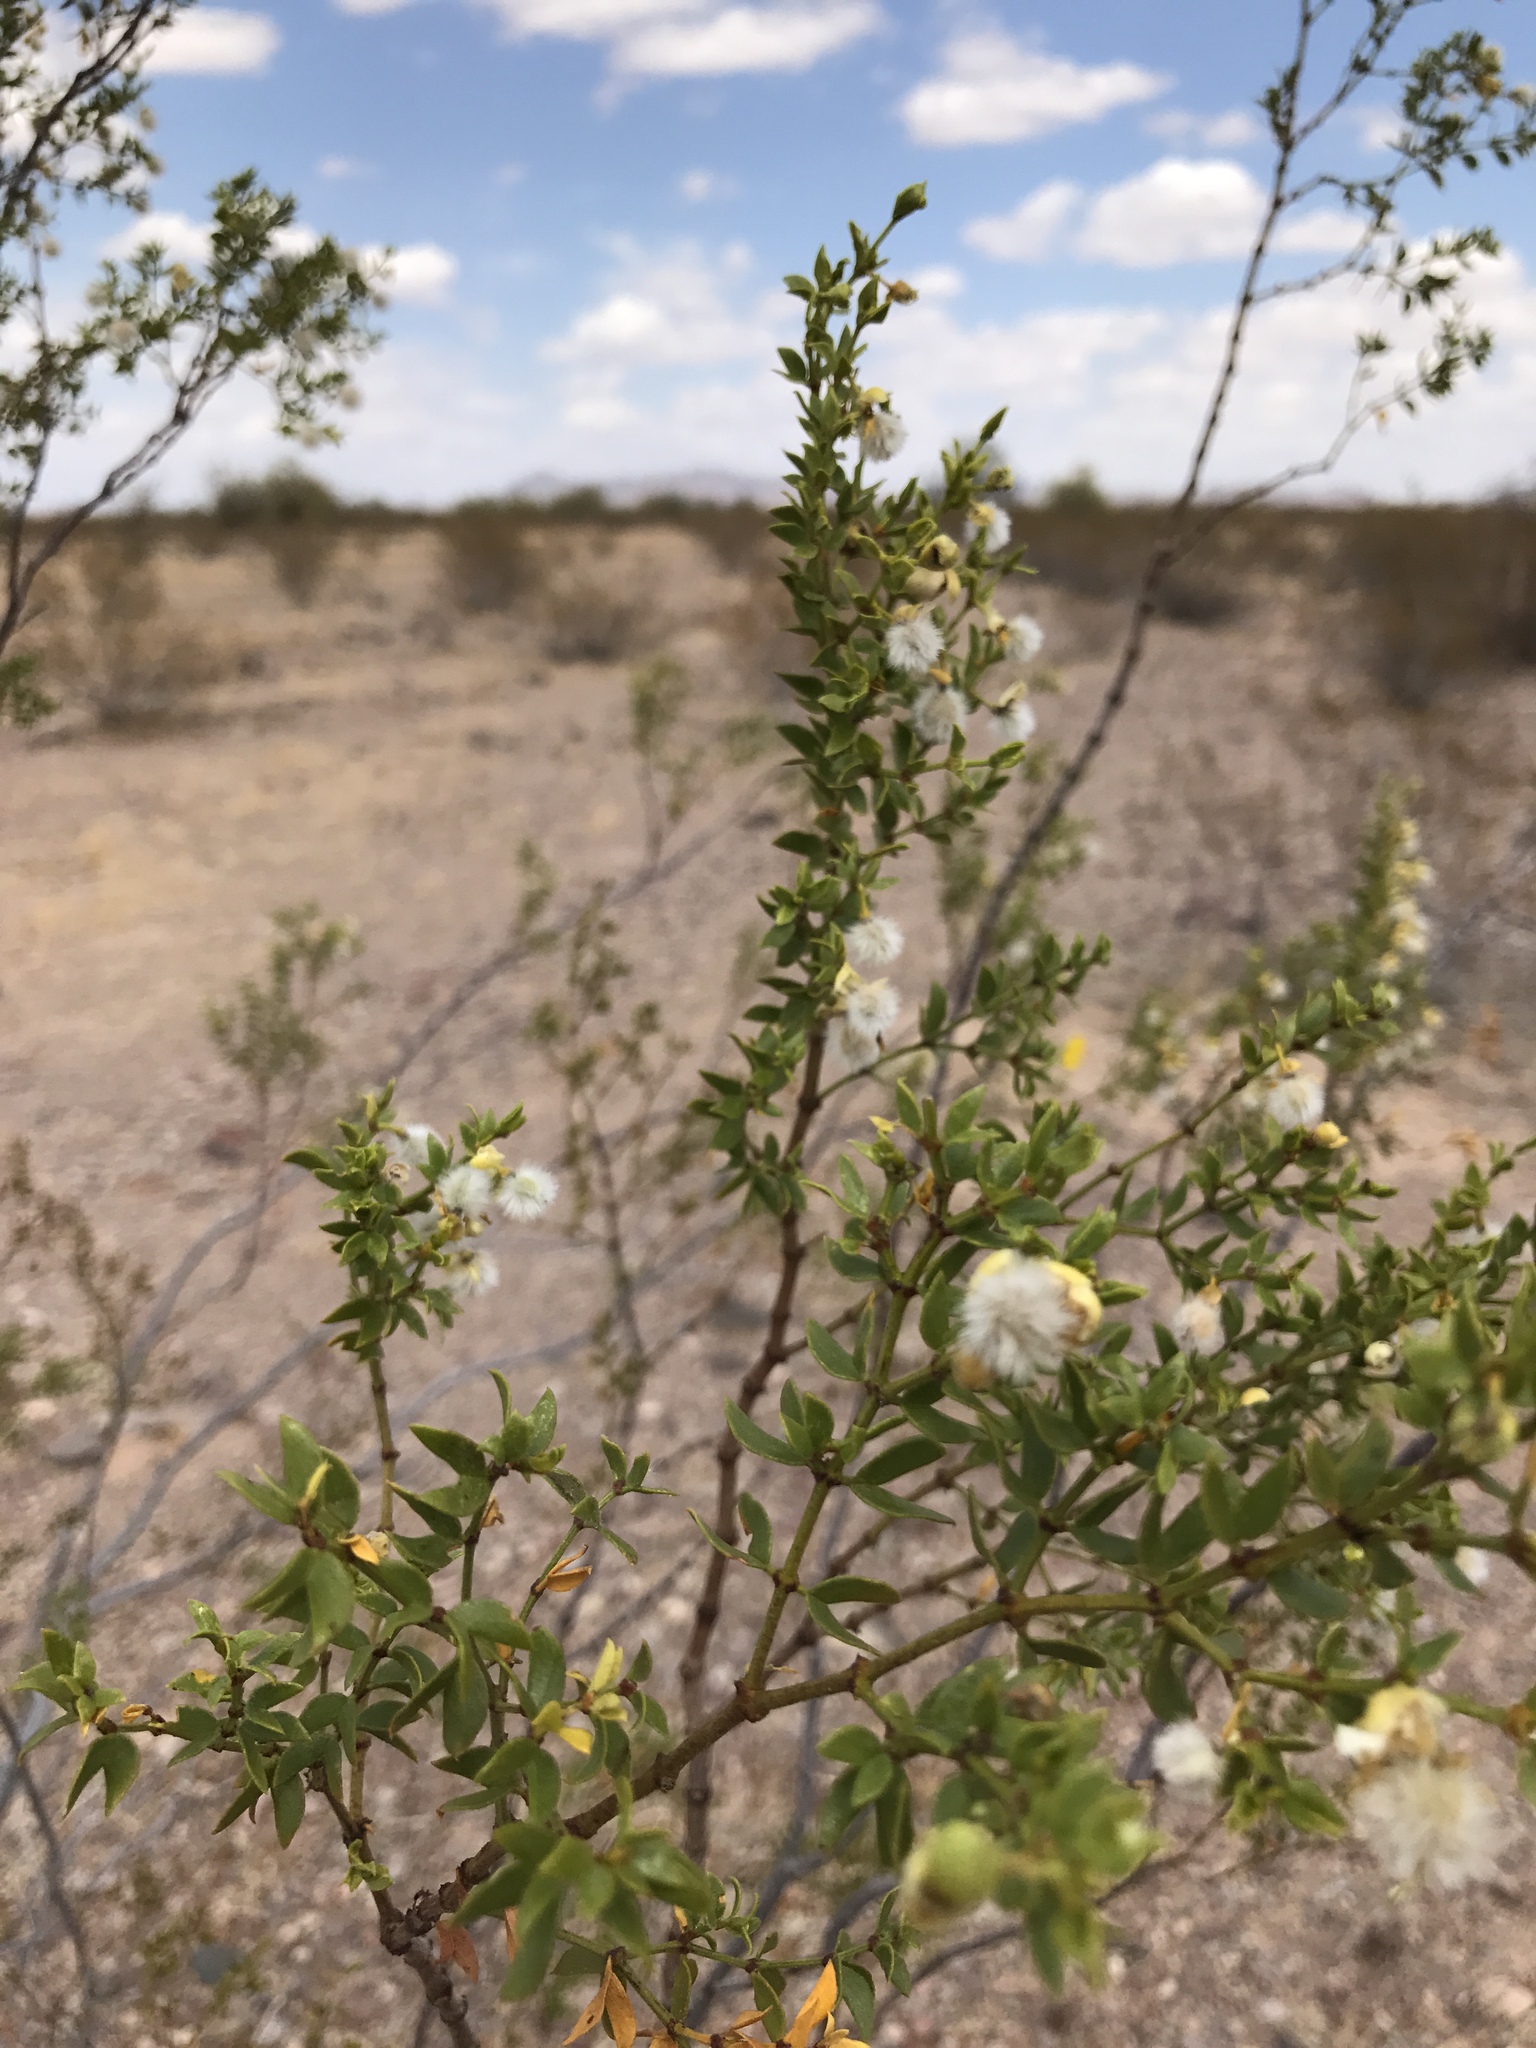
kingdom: Plantae
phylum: Tracheophyta
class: Magnoliopsida
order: Zygophyllales
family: Zygophyllaceae
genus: Larrea
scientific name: Larrea tridentata
